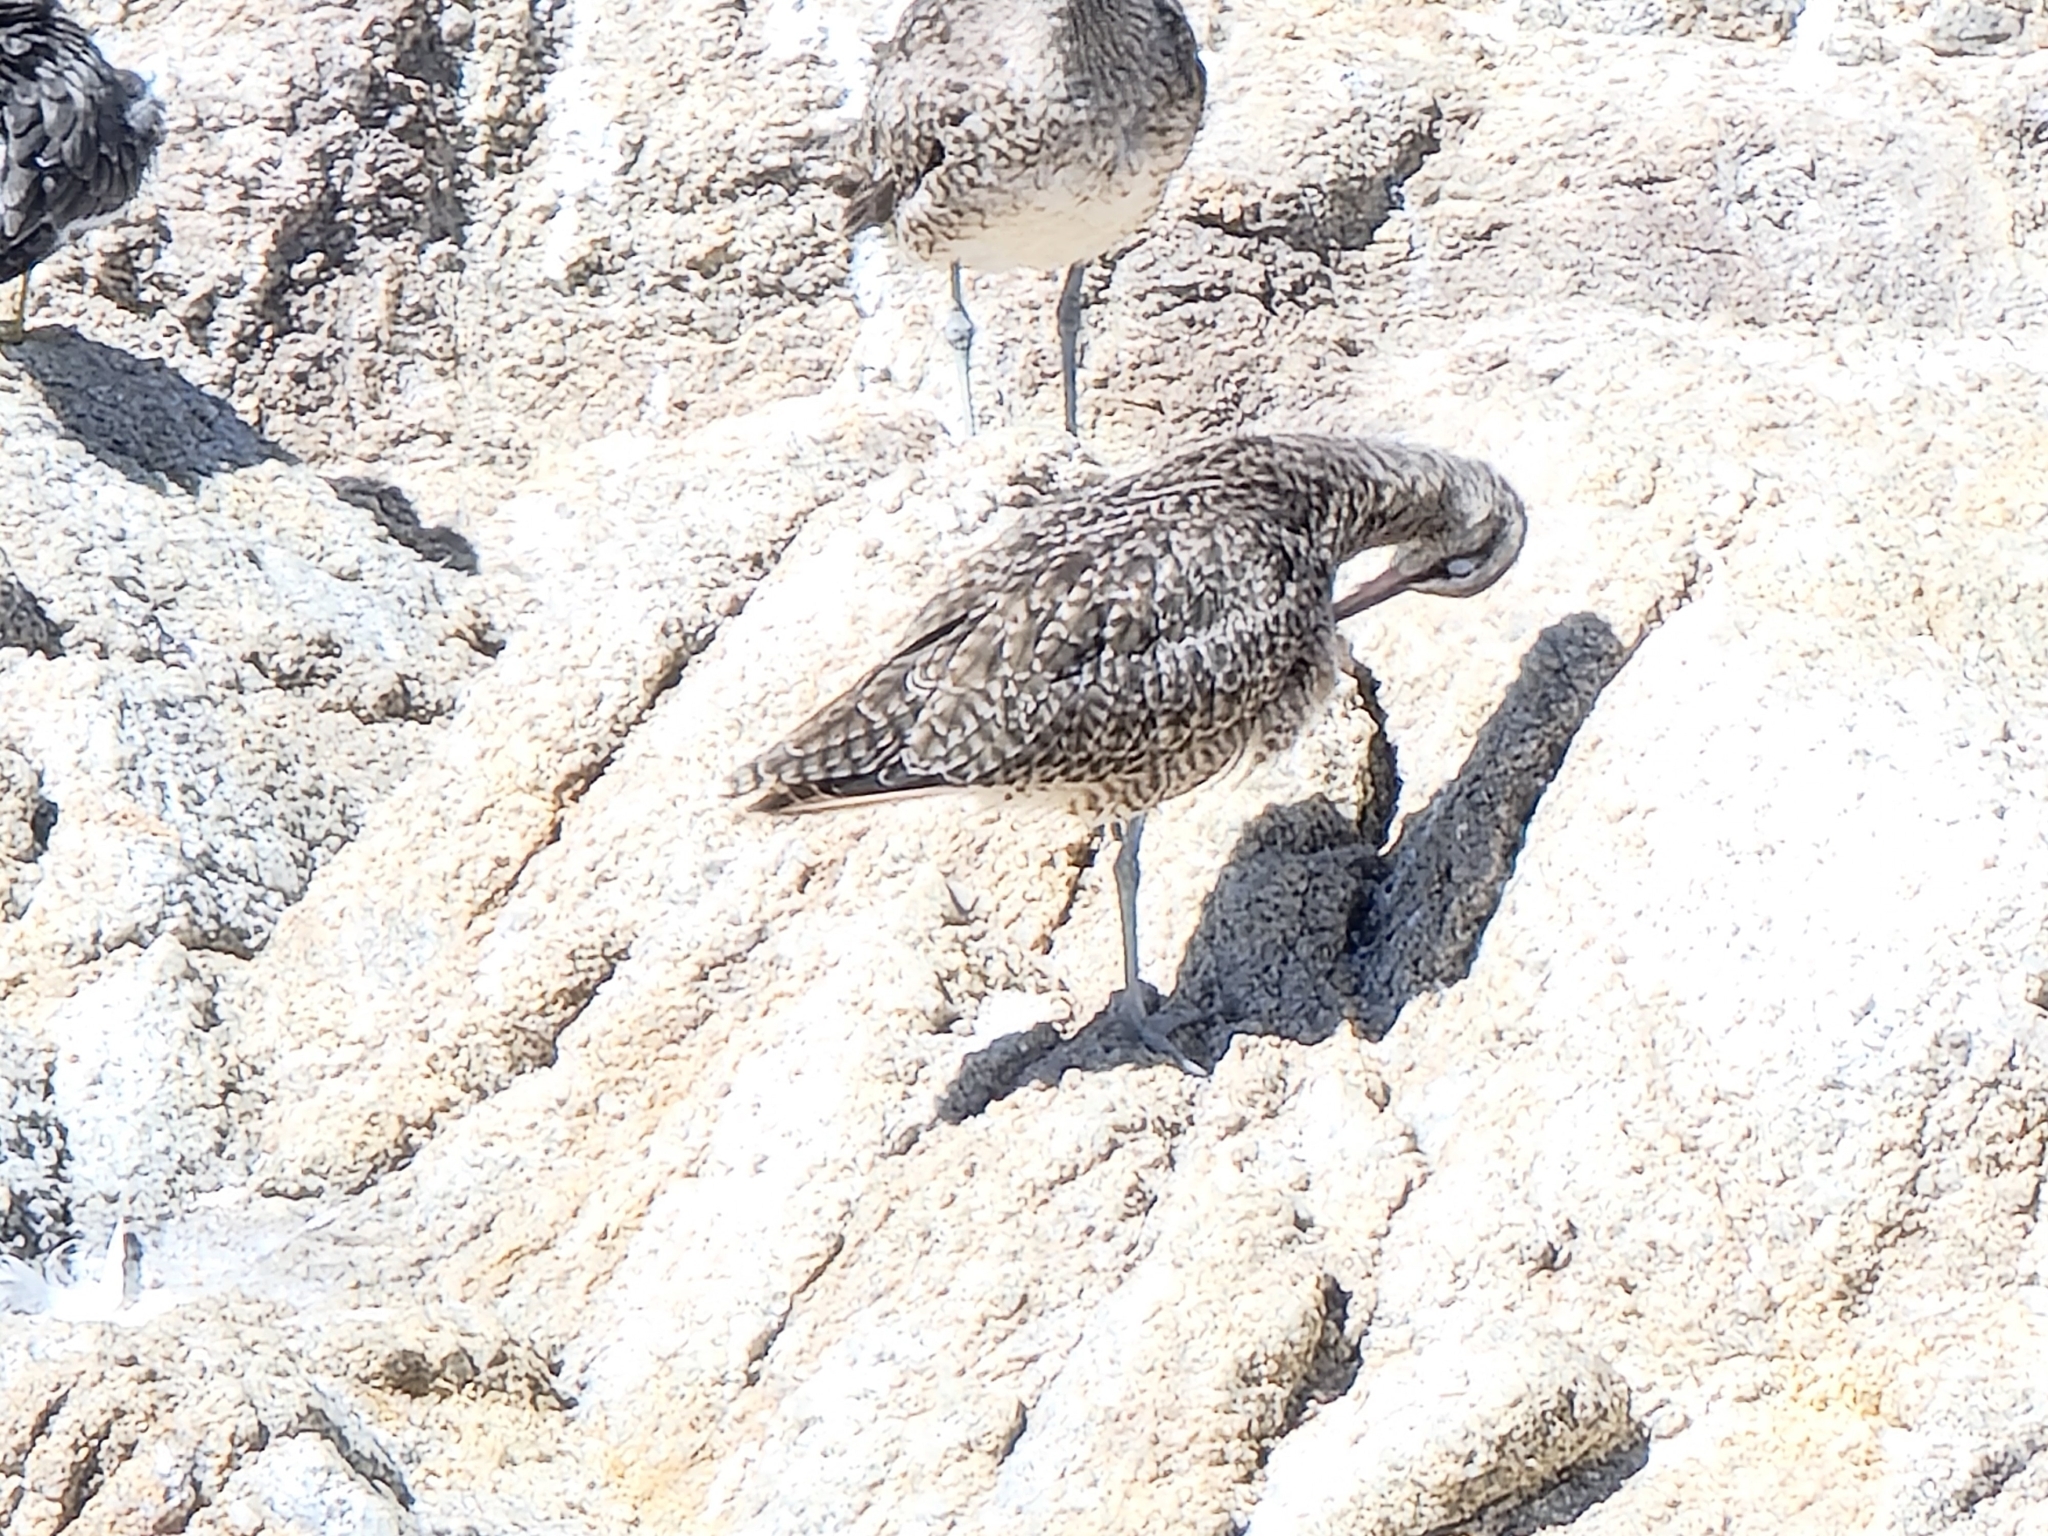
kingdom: Animalia
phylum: Chordata
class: Aves
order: Charadriiformes
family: Scolopacidae
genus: Numenius
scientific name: Numenius phaeopus
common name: Whimbrel
